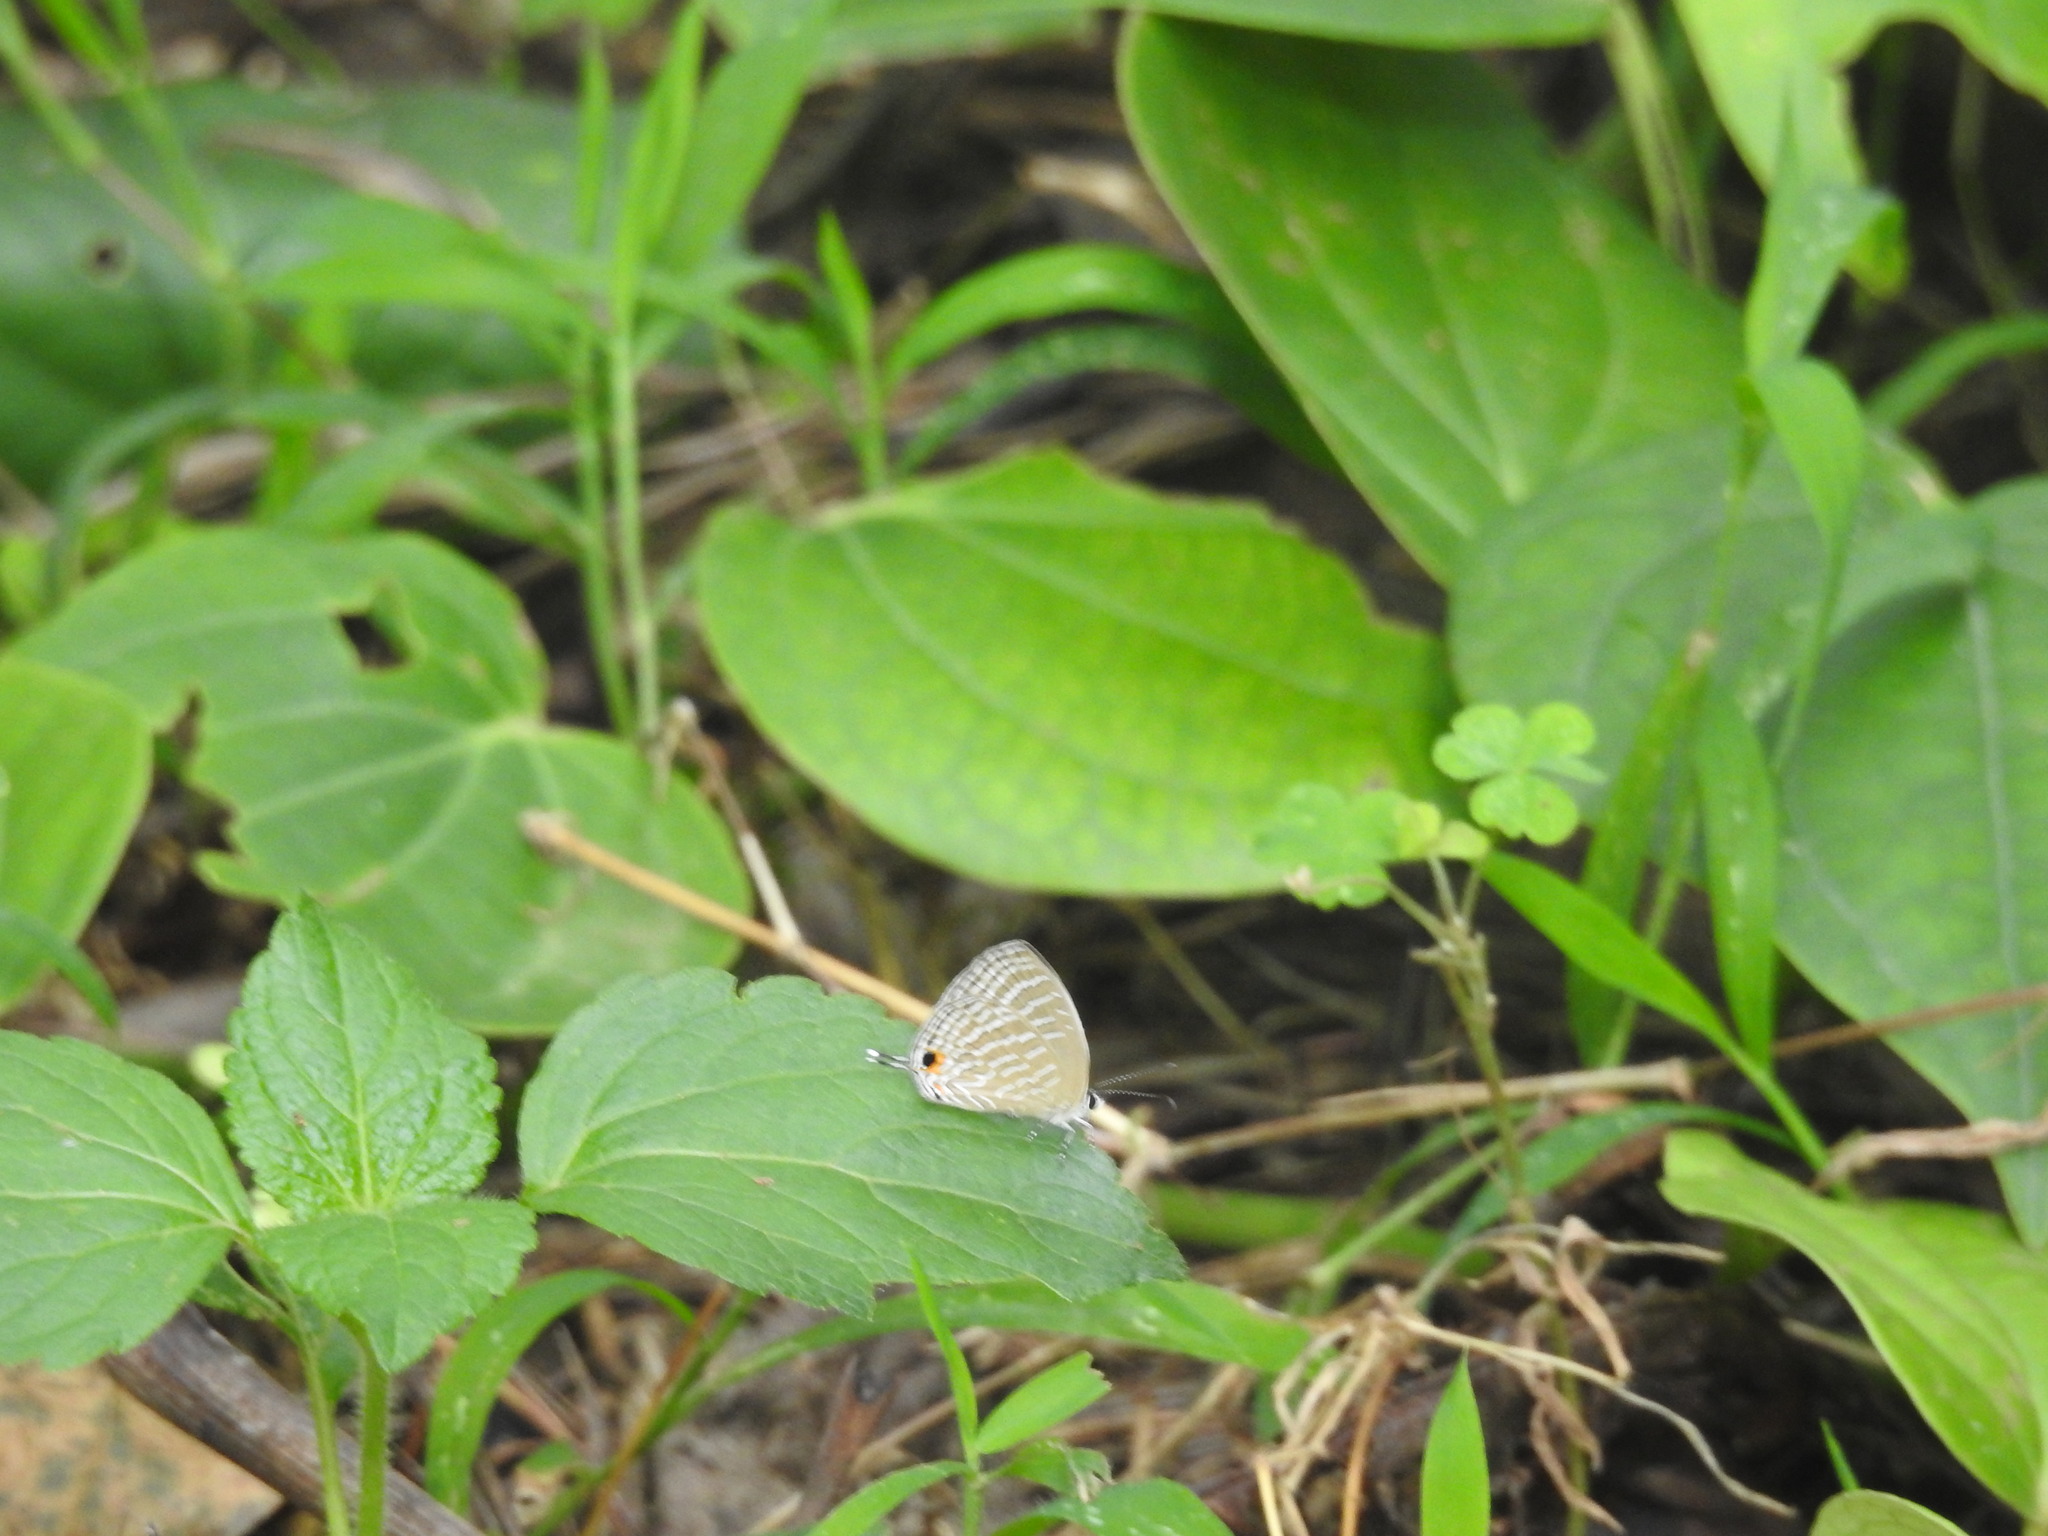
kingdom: Animalia
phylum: Arthropoda
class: Insecta
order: Lepidoptera
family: Lycaenidae
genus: Jamides
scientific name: Jamides celeno
